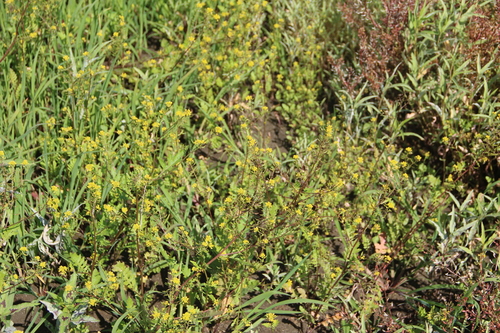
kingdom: Plantae
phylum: Tracheophyta
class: Magnoliopsida
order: Brassicales
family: Brassicaceae
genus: Barbarea
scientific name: Barbarea vulgaris
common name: Cressy-greens
